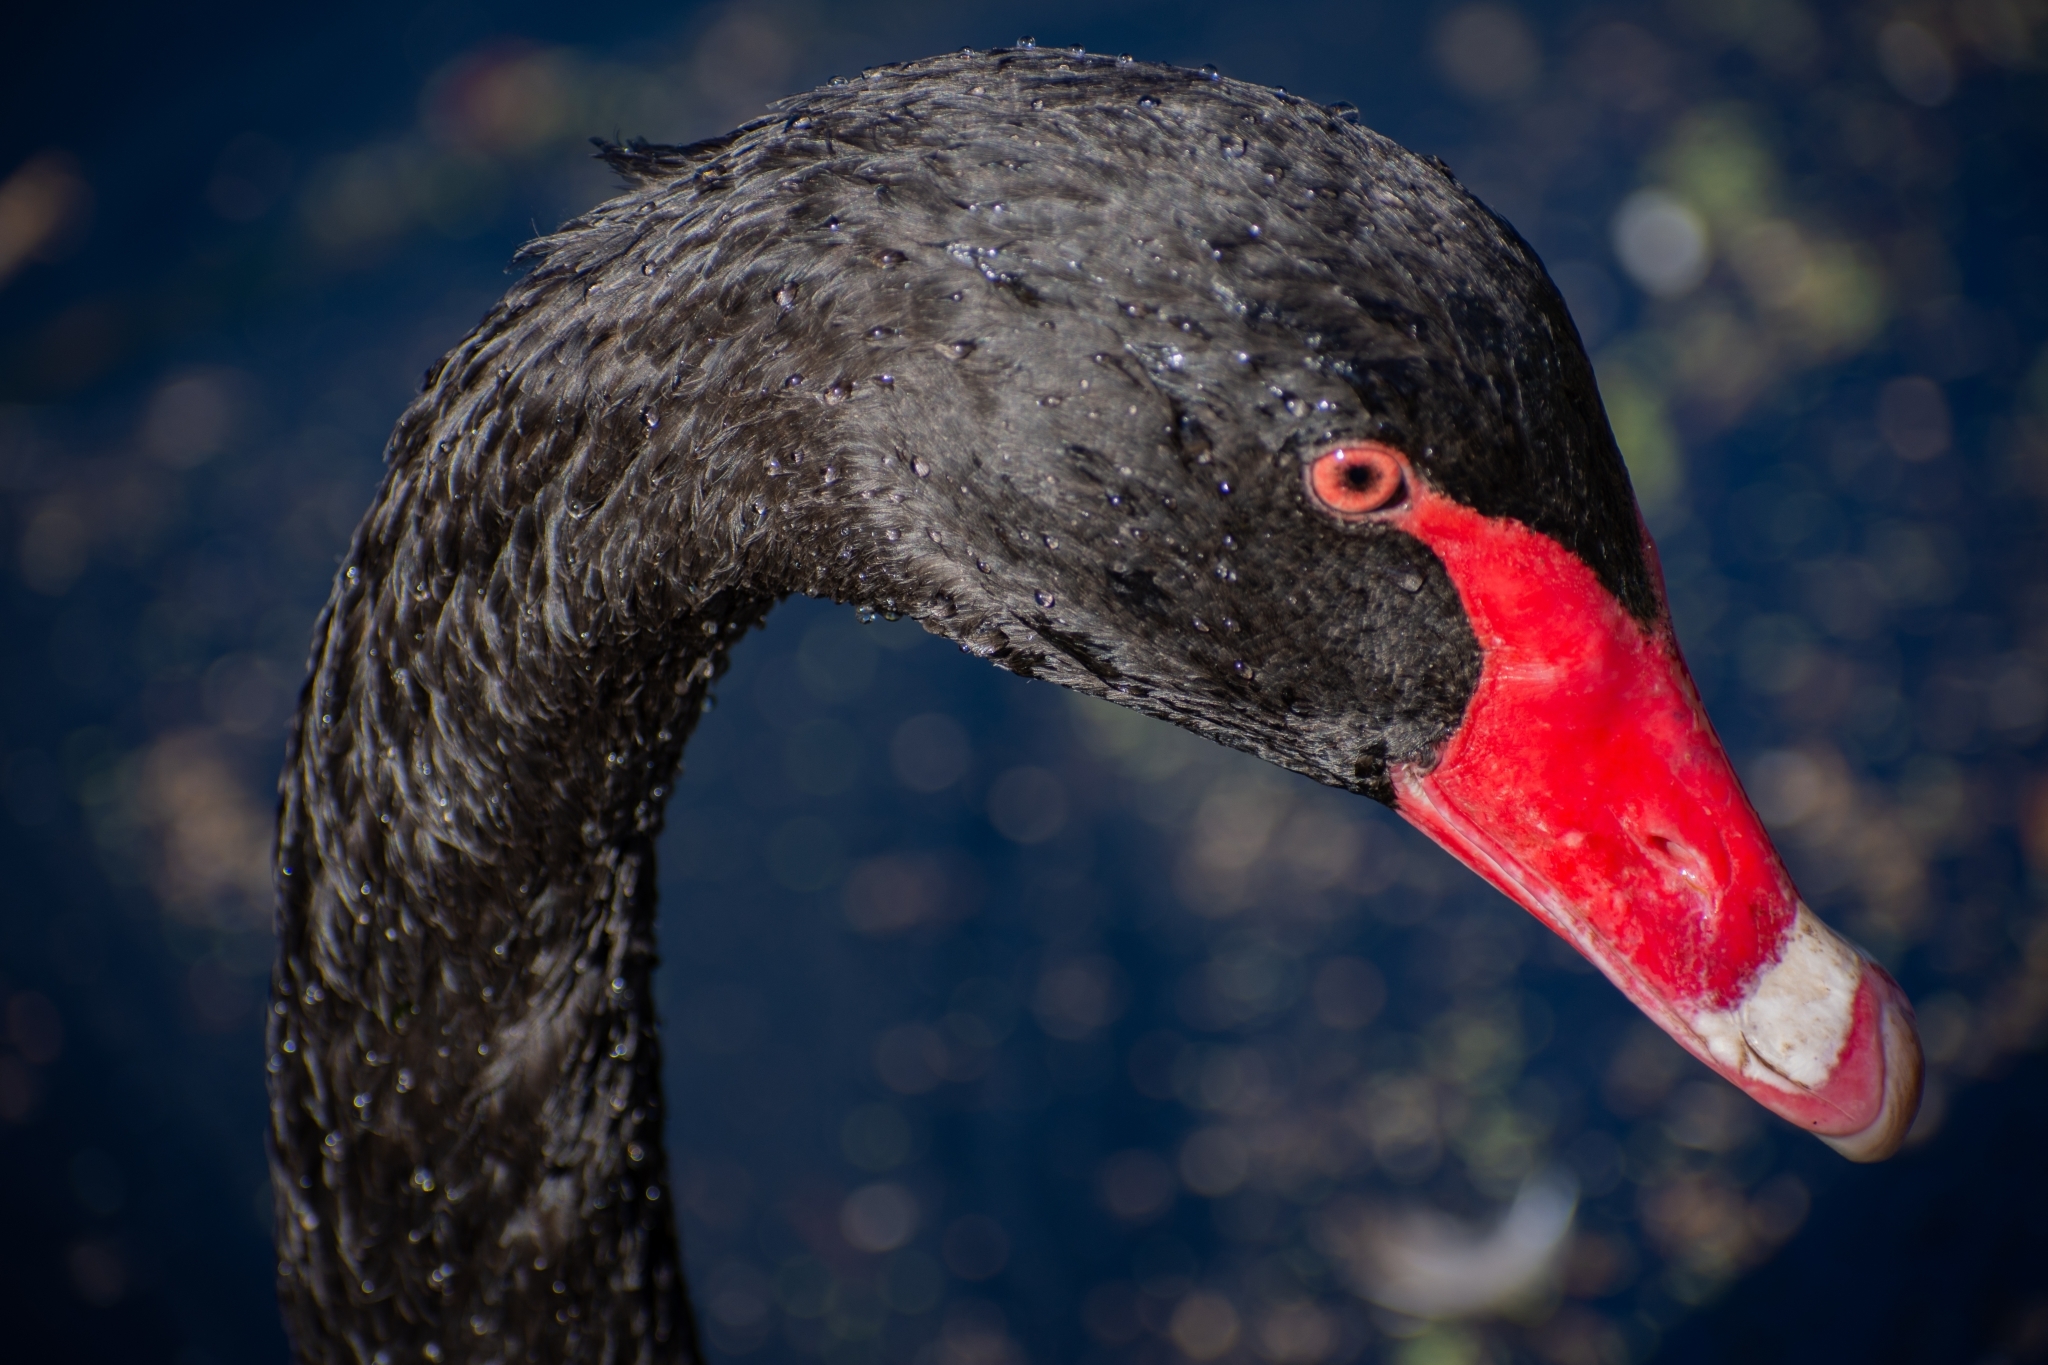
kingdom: Animalia
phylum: Chordata
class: Aves
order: Anseriformes
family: Anatidae
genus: Cygnus
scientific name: Cygnus atratus
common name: Black swan
